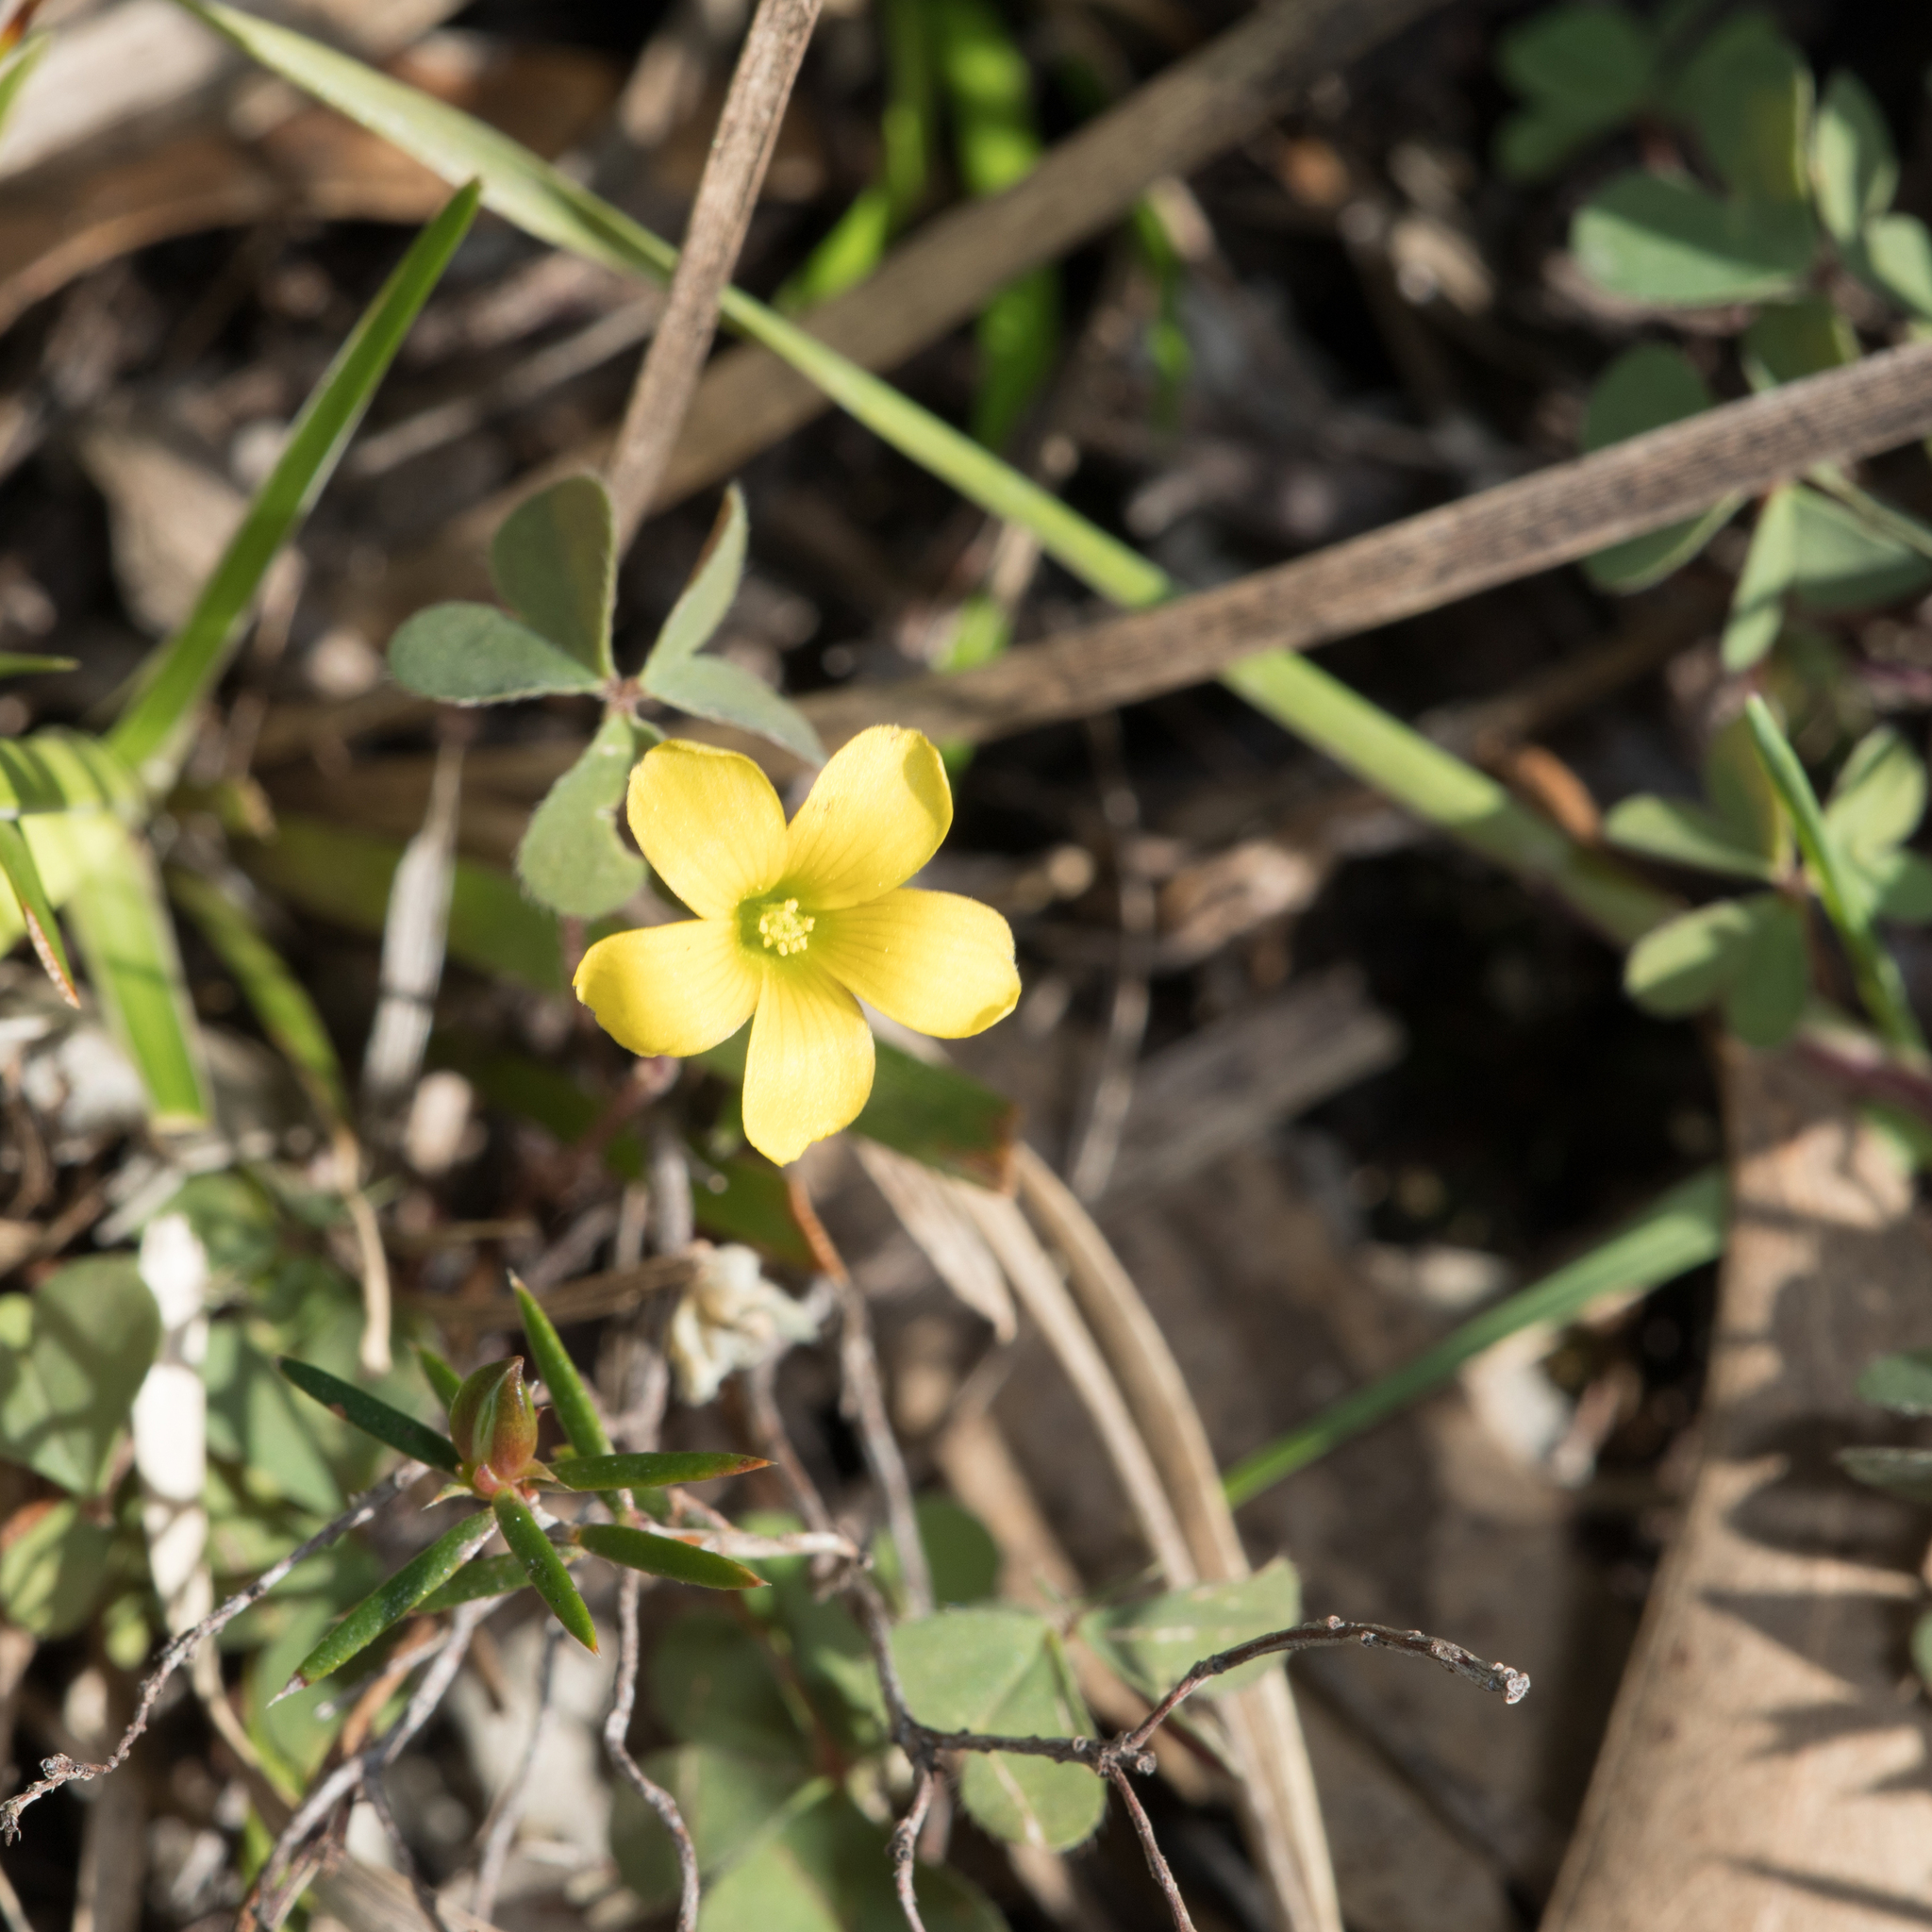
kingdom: Plantae
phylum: Tracheophyta
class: Magnoliopsida
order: Oxalidales
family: Oxalidaceae
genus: Oxalis
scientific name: Oxalis perennans
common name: Woody-rooted yellow-sorrel
